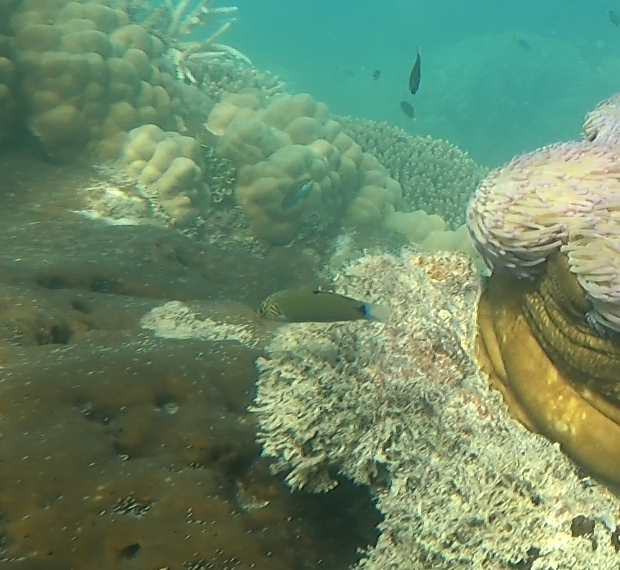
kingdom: Animalia
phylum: Chordata
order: Perciformes
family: Labridae
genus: Thalassoma
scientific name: Thalassoma lunare
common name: Blue wrasse
